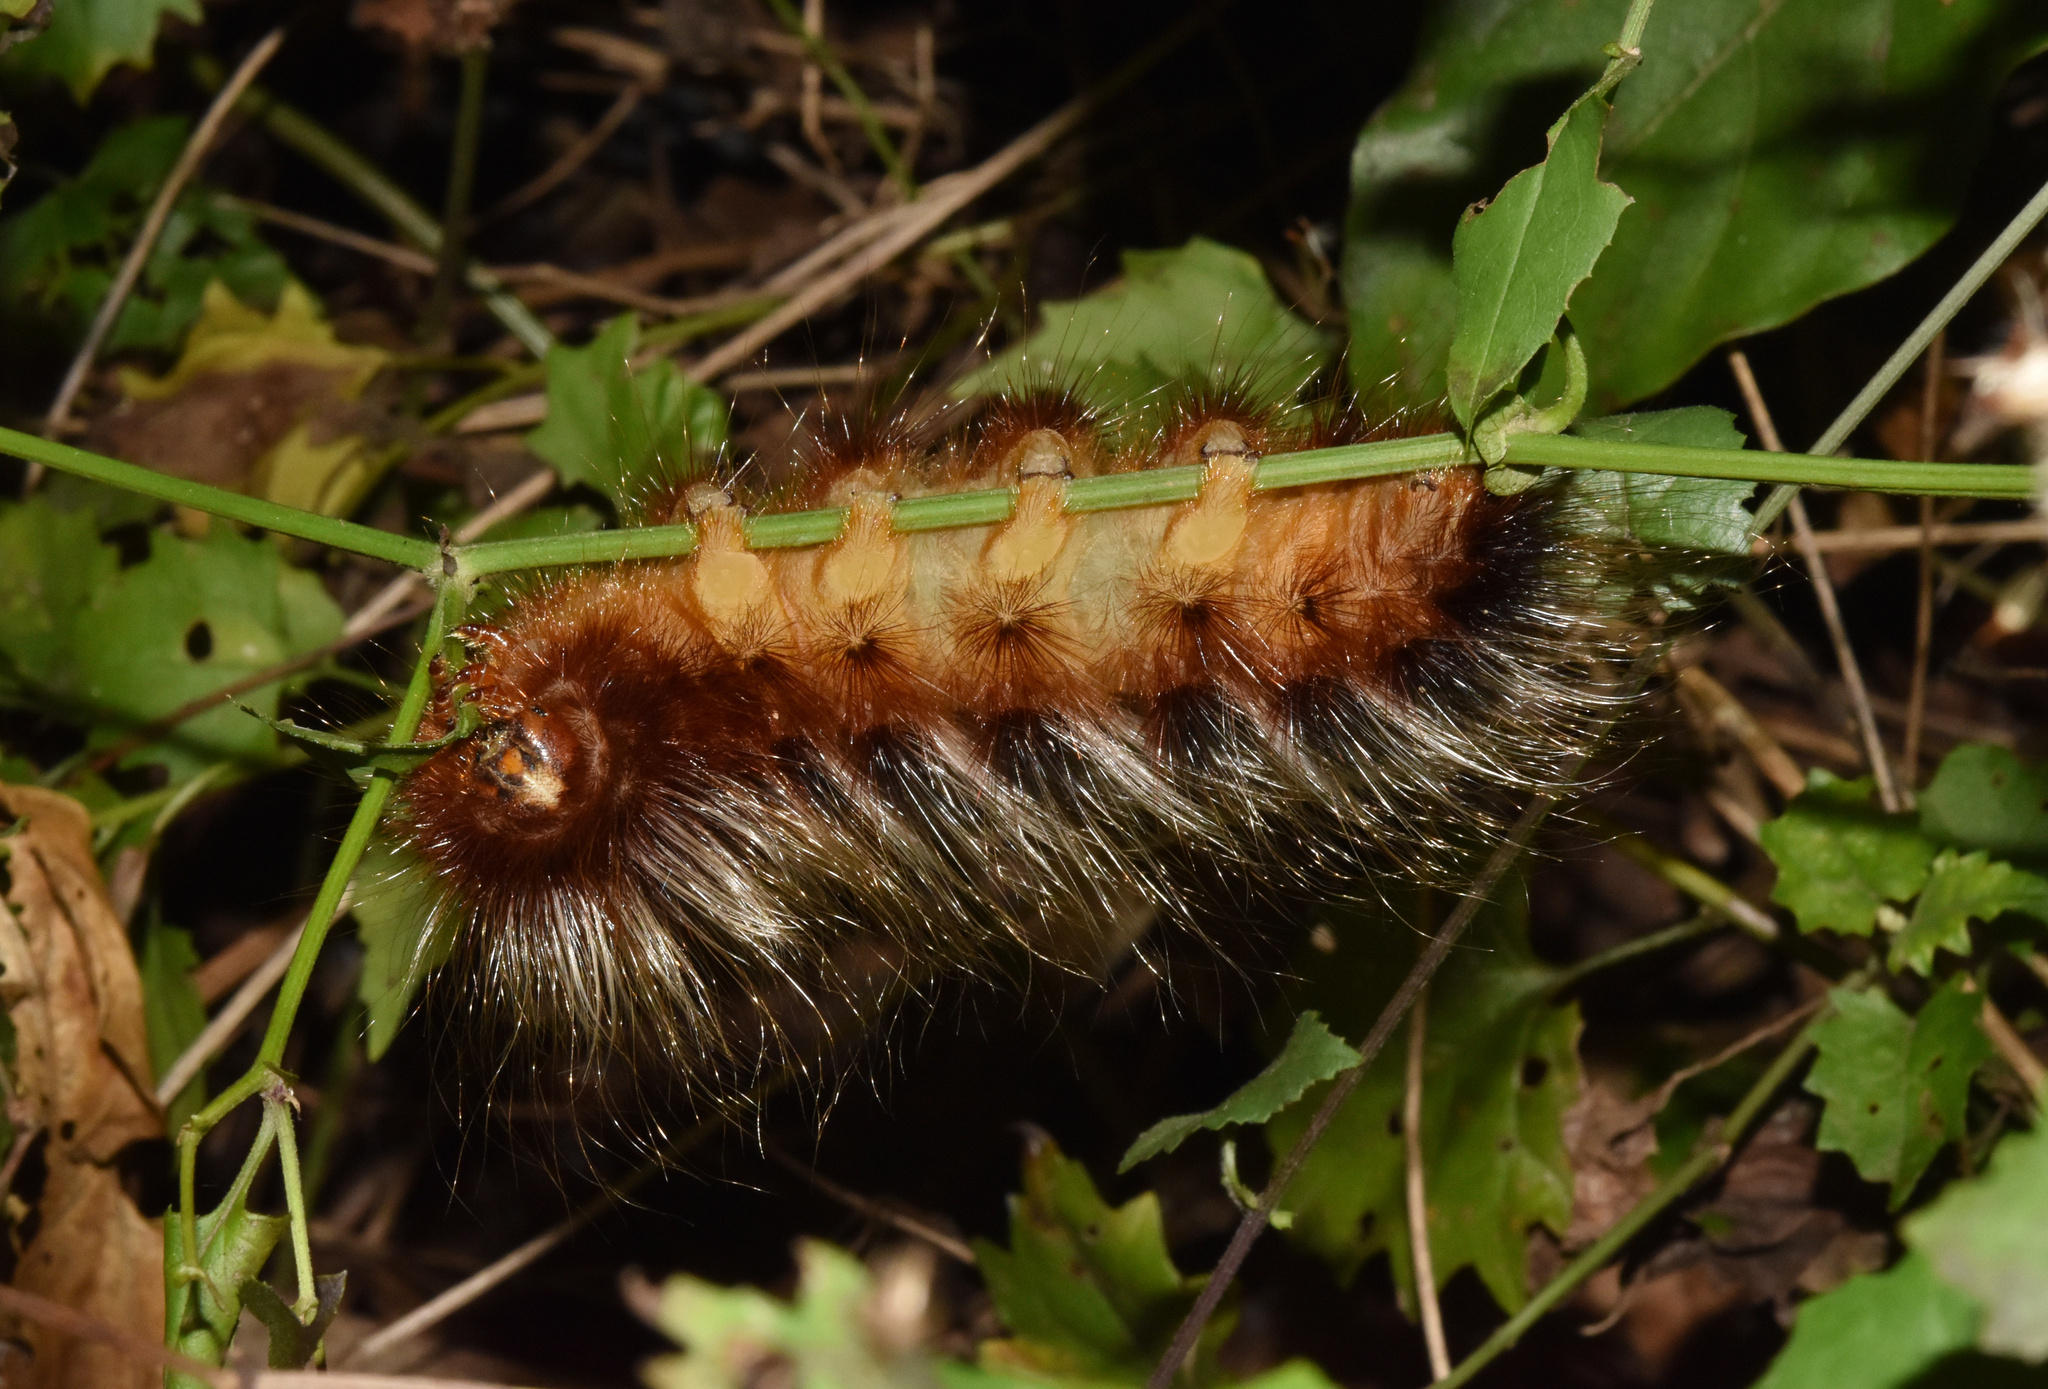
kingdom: Animalia
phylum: Arthropoda
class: Insecta
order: Lepidoptera
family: Eupterotidae
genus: Striphnopteryx
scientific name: Striphnopteryx edulis
